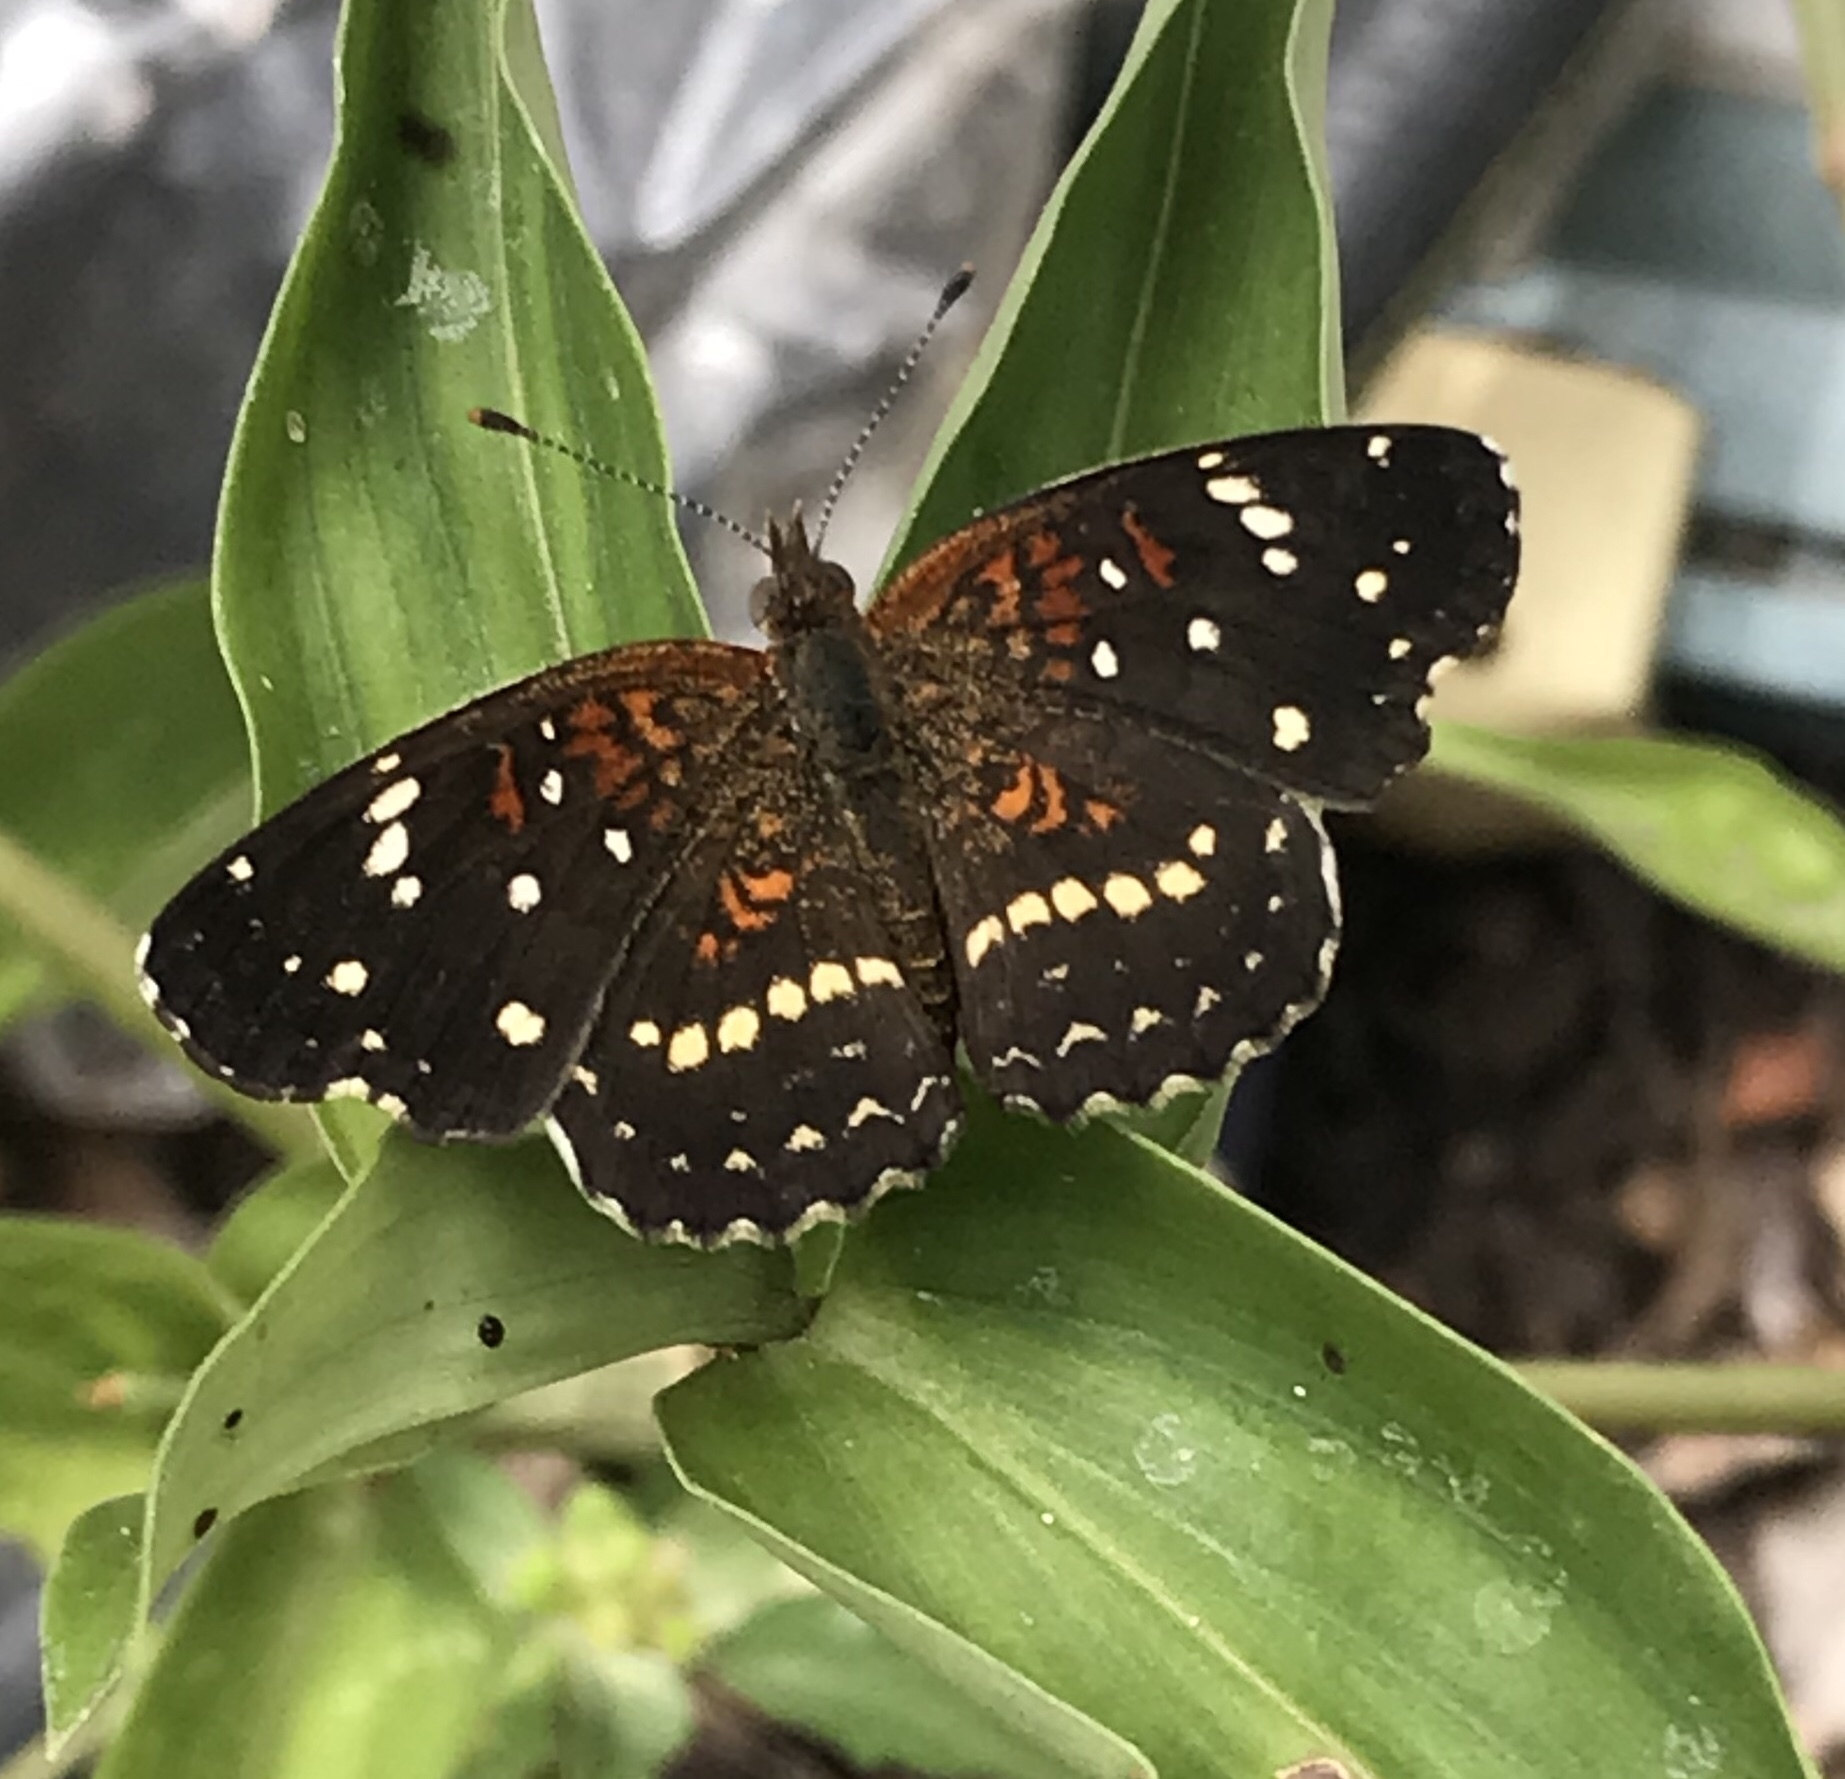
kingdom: Animalia
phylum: Arthropoda
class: Insecta
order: Lepidoptera
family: Nymphalidae
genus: Anthanassa
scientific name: Anthanassa texana
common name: Texan crescent
